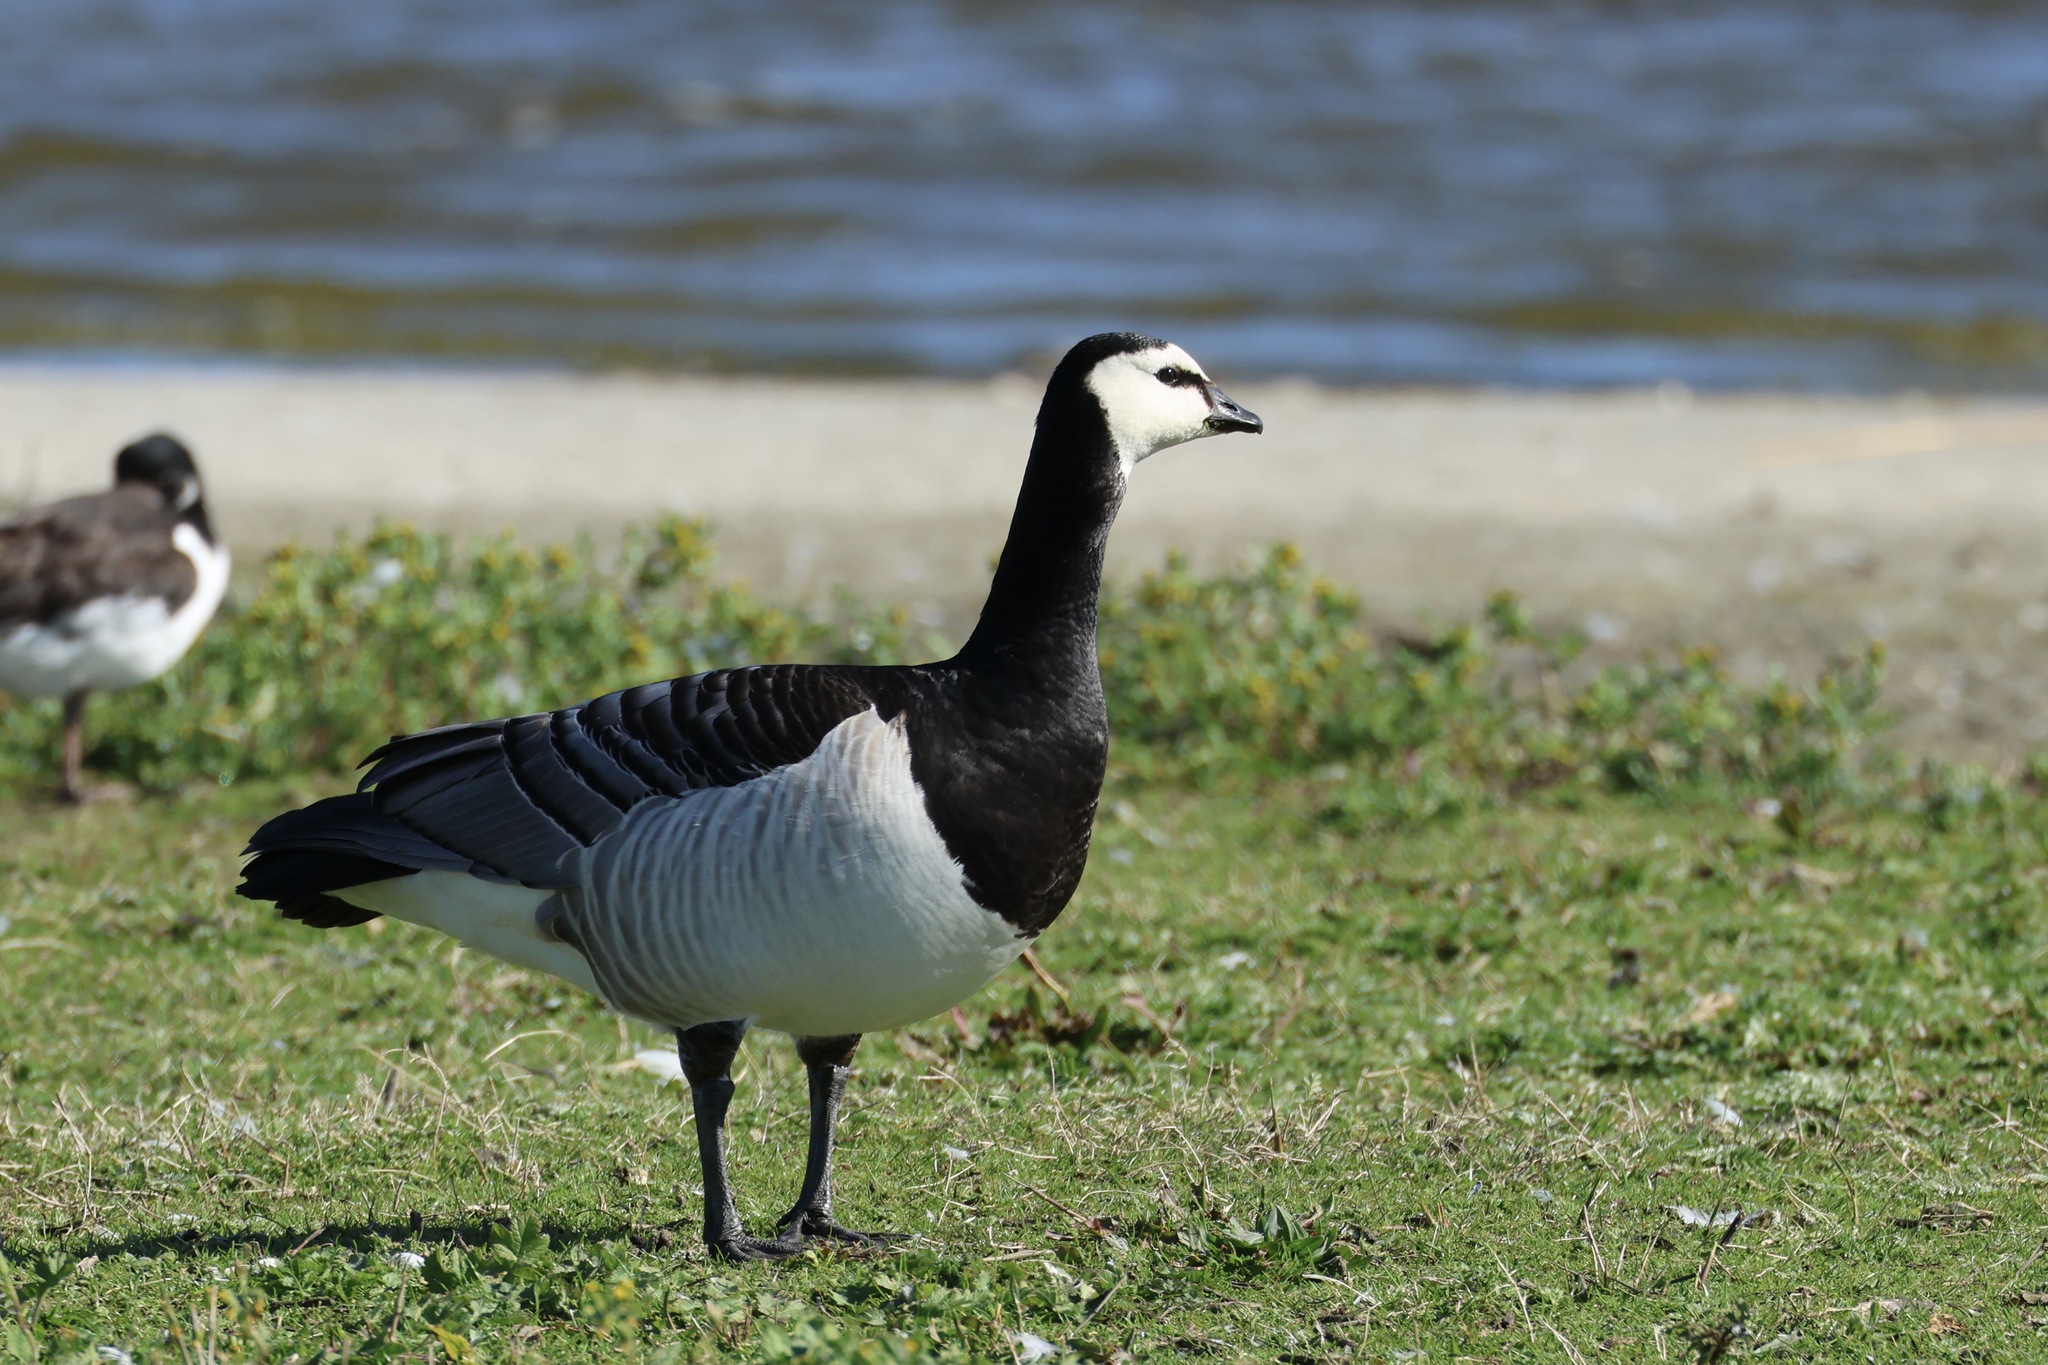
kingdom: Animalia
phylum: Chordata
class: Aves
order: Anseriformes
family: Anatidae
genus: Branta
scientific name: Branta leucopsis
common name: Barnacle goose
